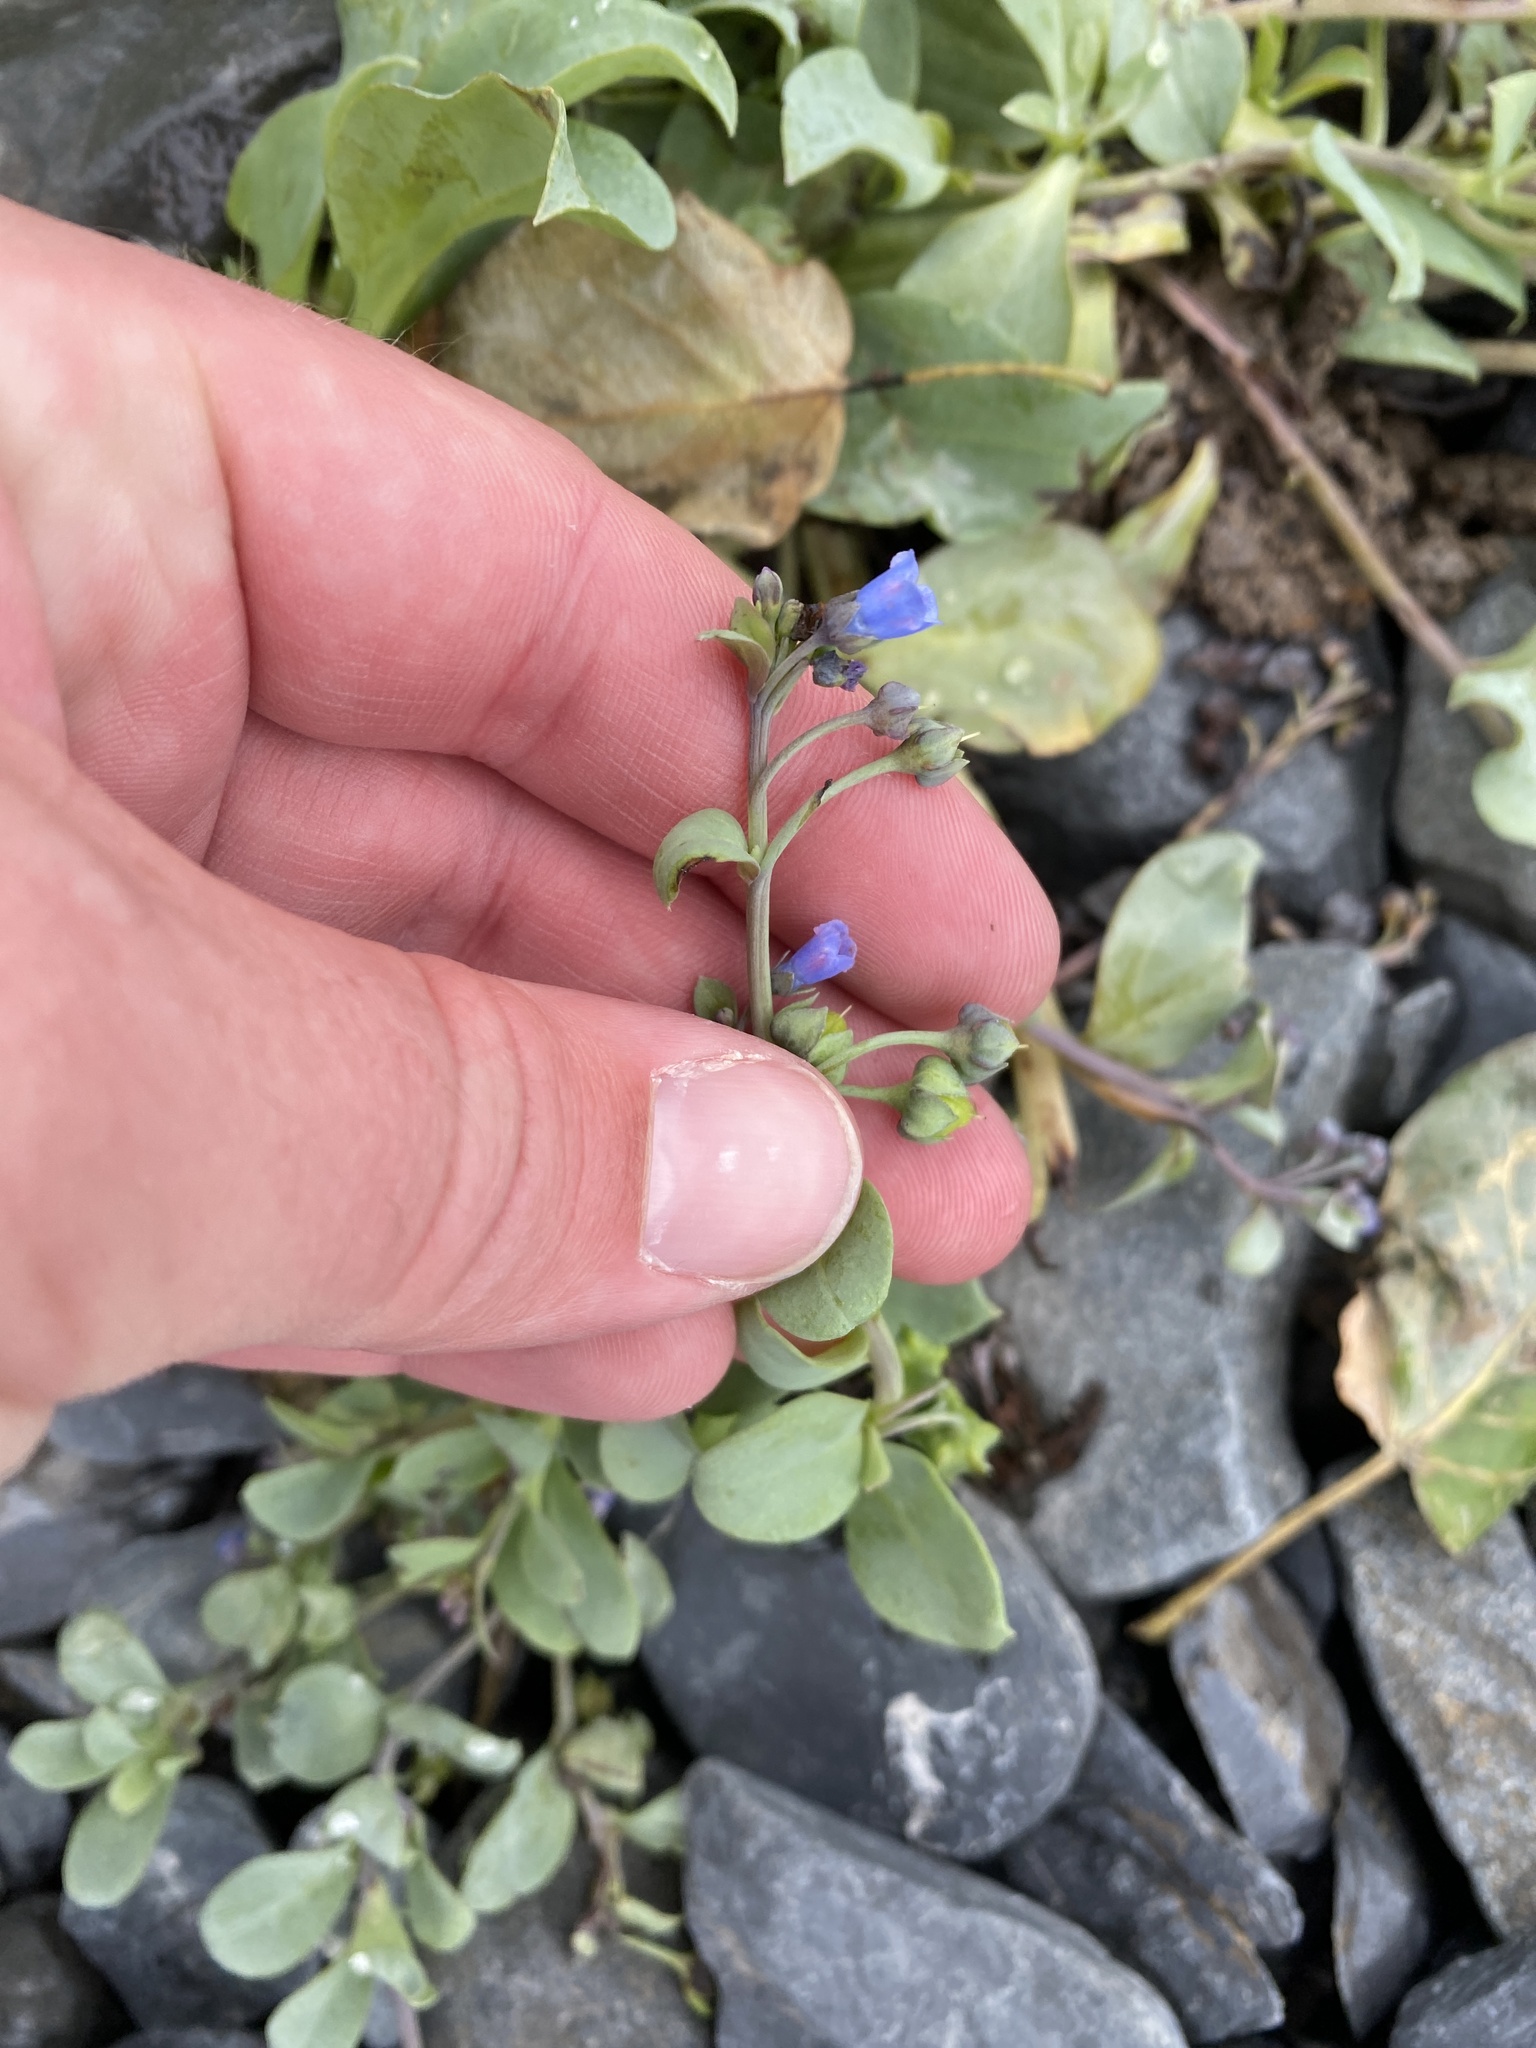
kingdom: Plantae
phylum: Tracheophyta
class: Magnoliopsida
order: Boraginales
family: Boraginaceae
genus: Mertensia
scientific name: Mertensia maritima
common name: Oysterplant
